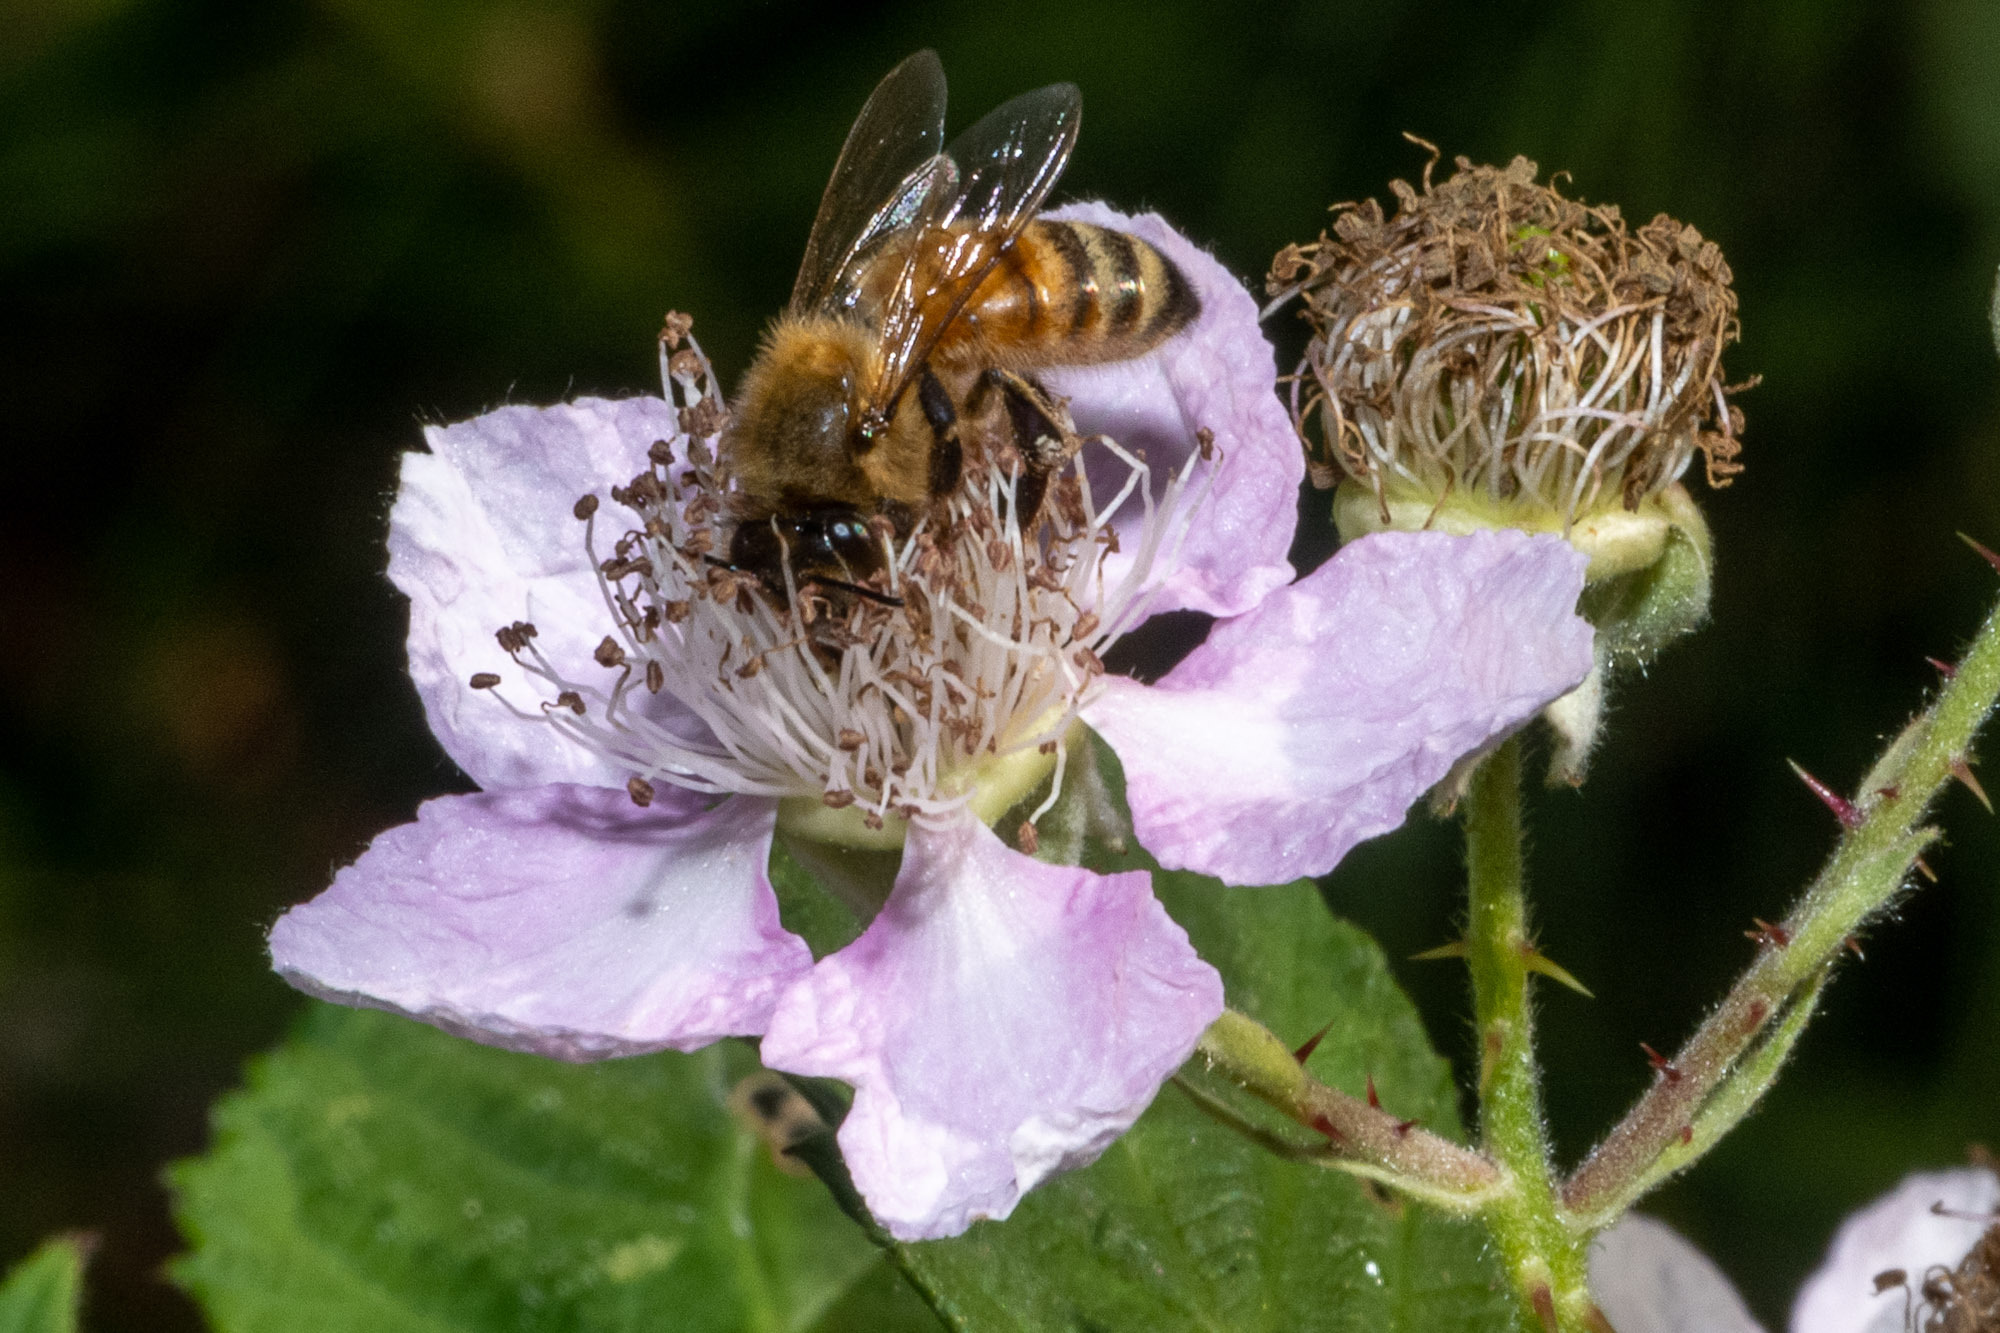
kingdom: Animalia
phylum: Arthropoda
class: Insecta
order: Hymenoptera
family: Apidae
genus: Apis
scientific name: Apis mellifera
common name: Honey bee
